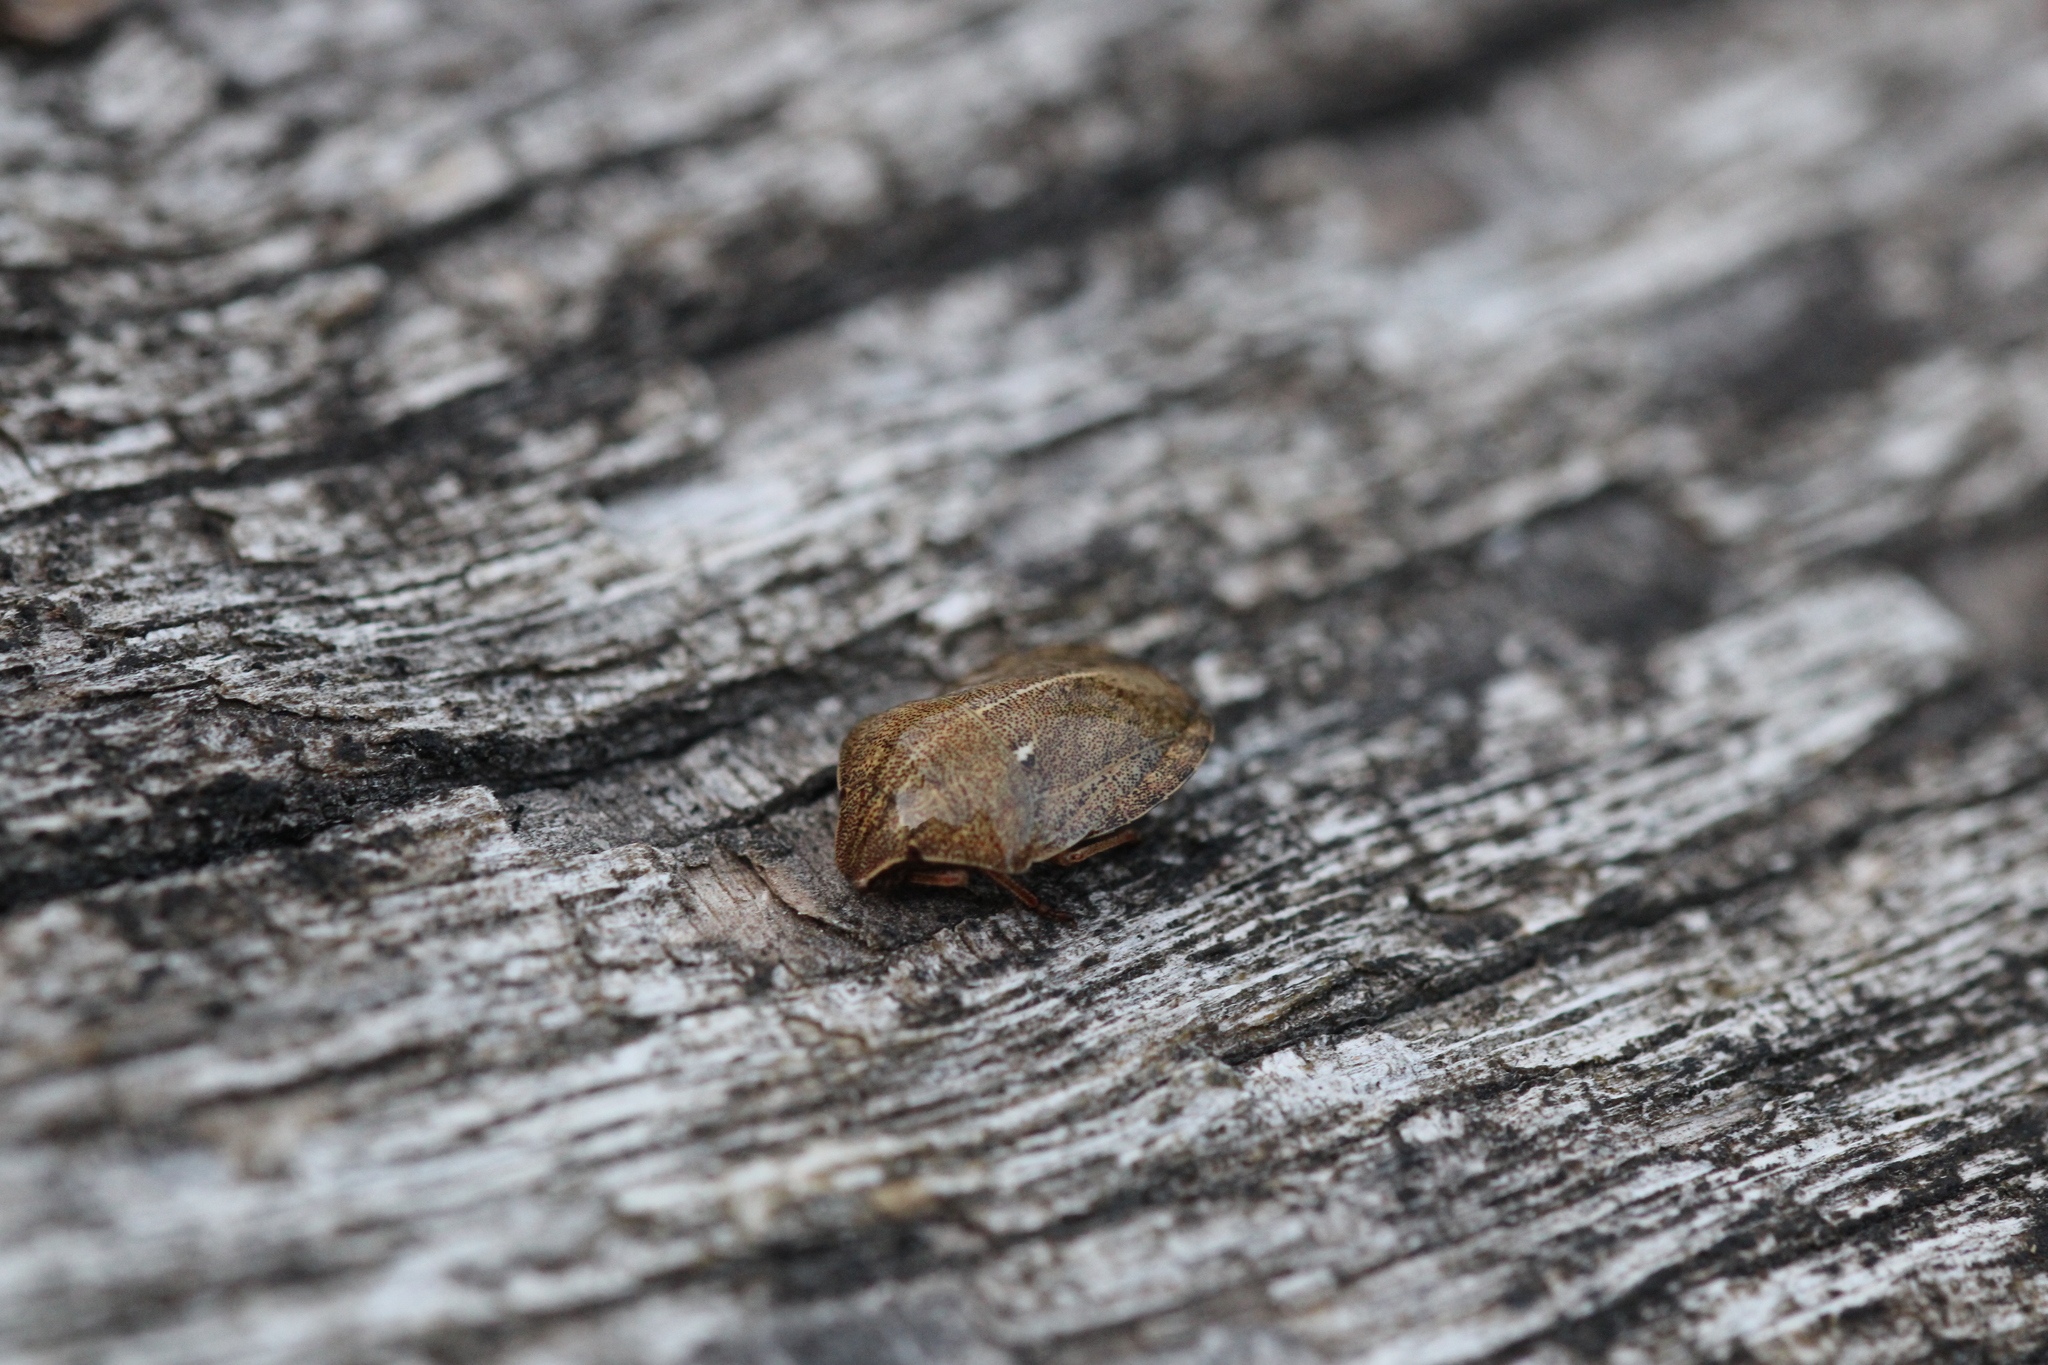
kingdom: Animalia
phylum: Arthropoda
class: Insecta
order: Hemiptera
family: Scutelleridae
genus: Eurygaster
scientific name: Eurygaster testudinaria
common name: Tortoise bug
